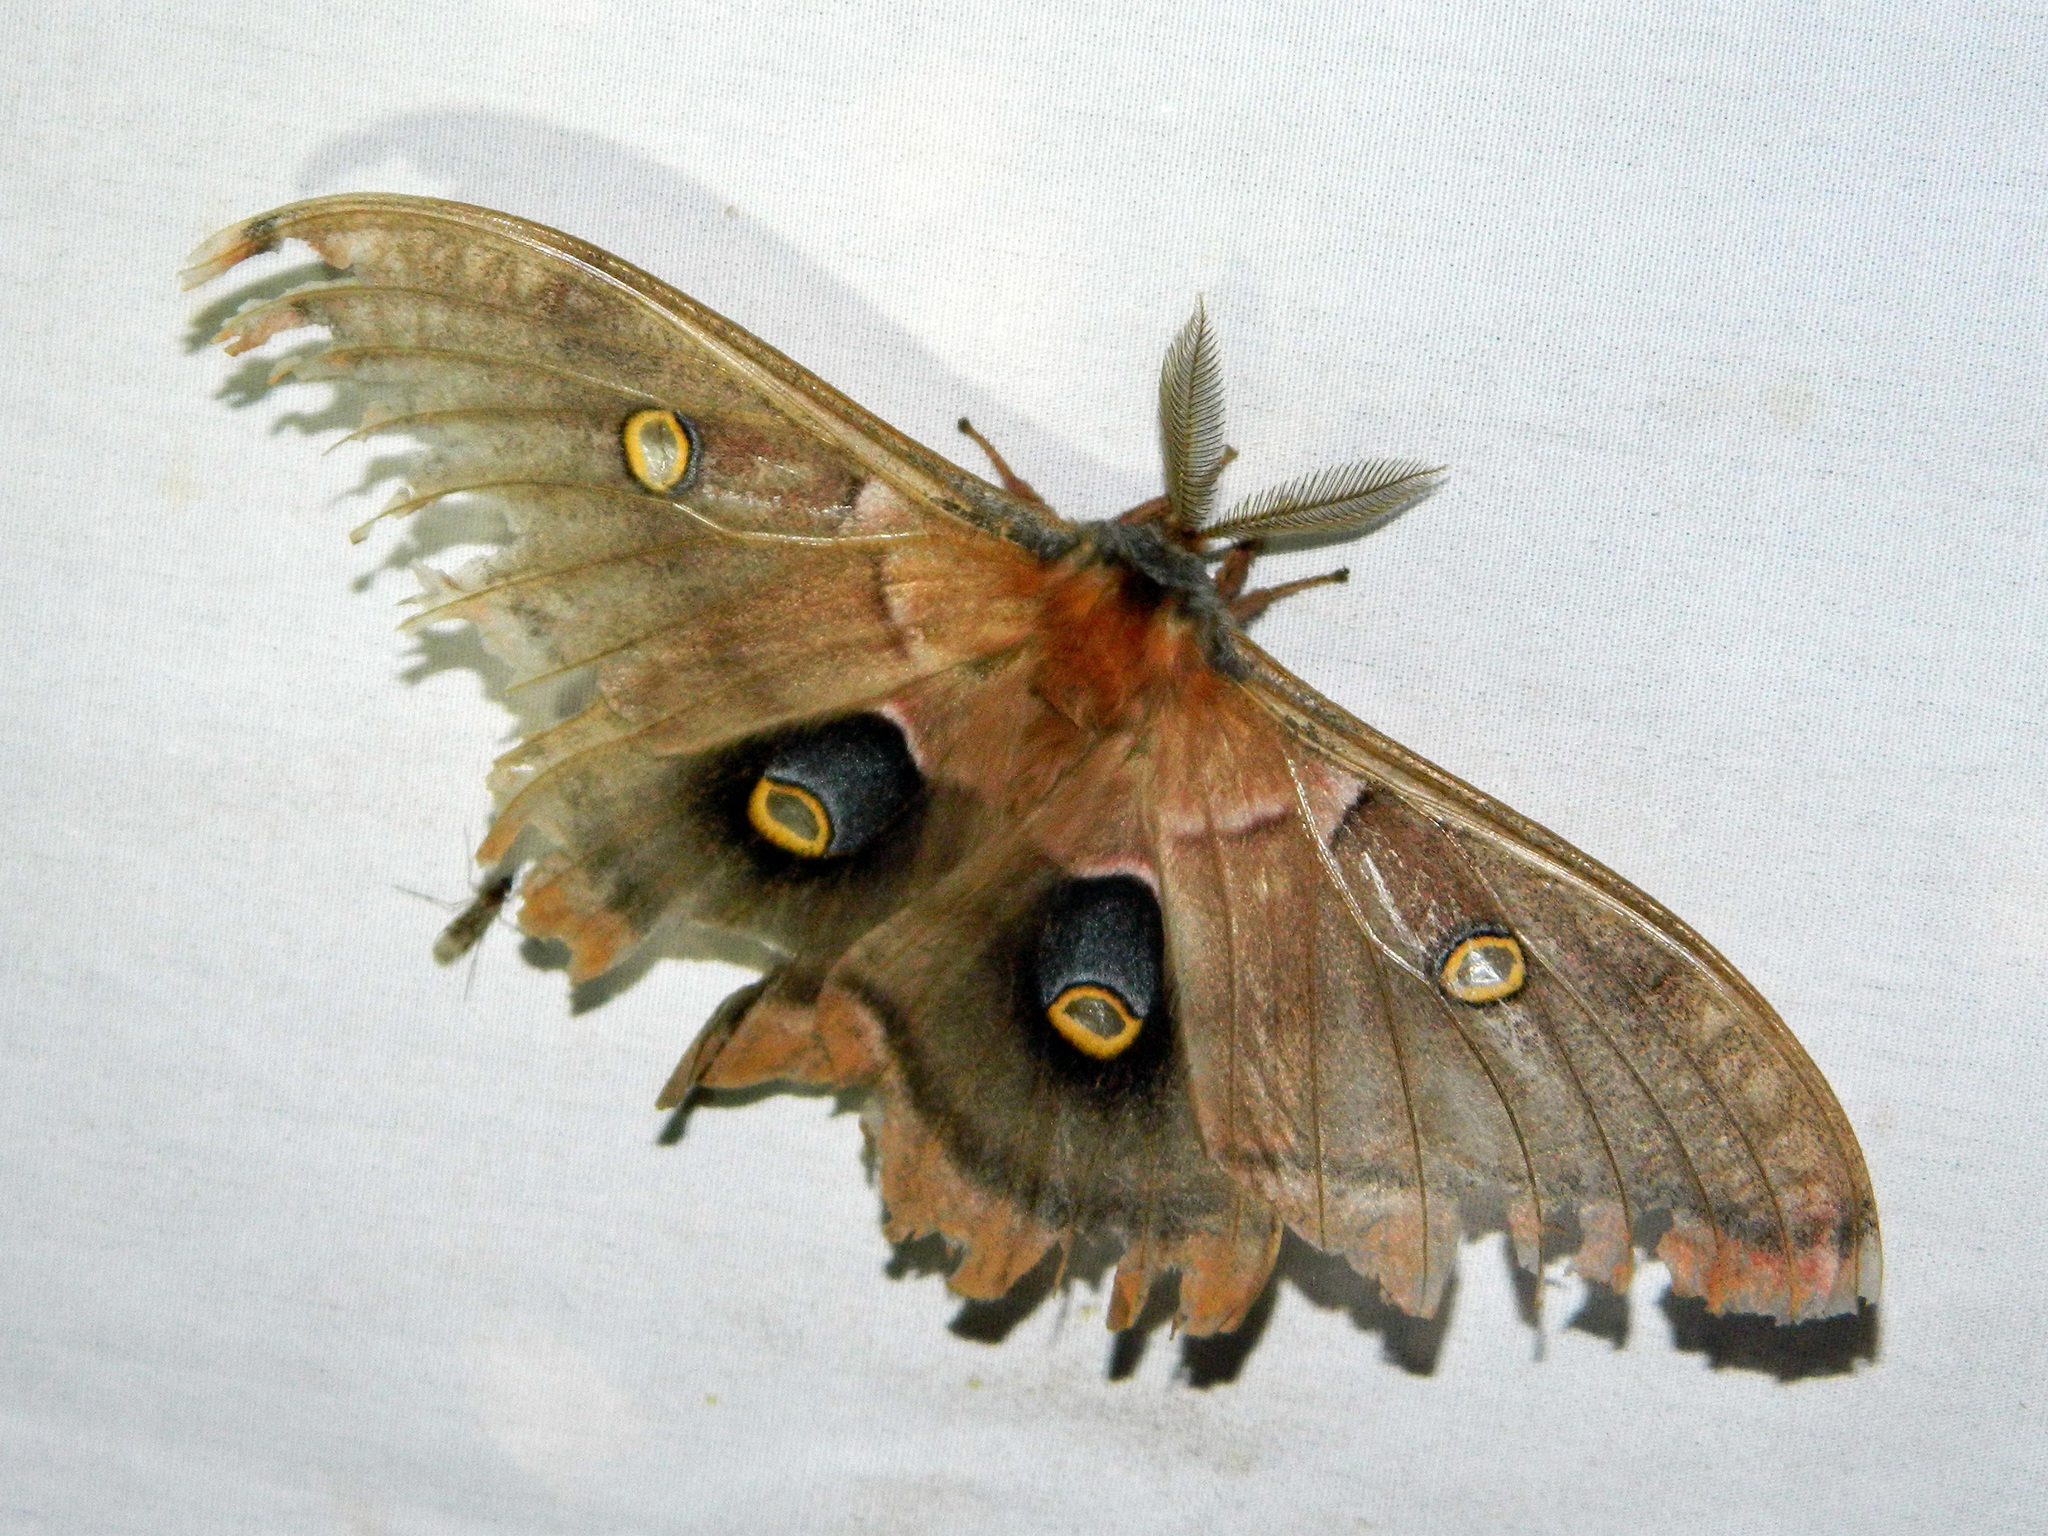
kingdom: Animalia
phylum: Arthropoda
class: Insecta
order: Lepidoptera
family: Saturniidae
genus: Antheraea
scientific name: Antheraea polyphemus
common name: Polyphemus moth
